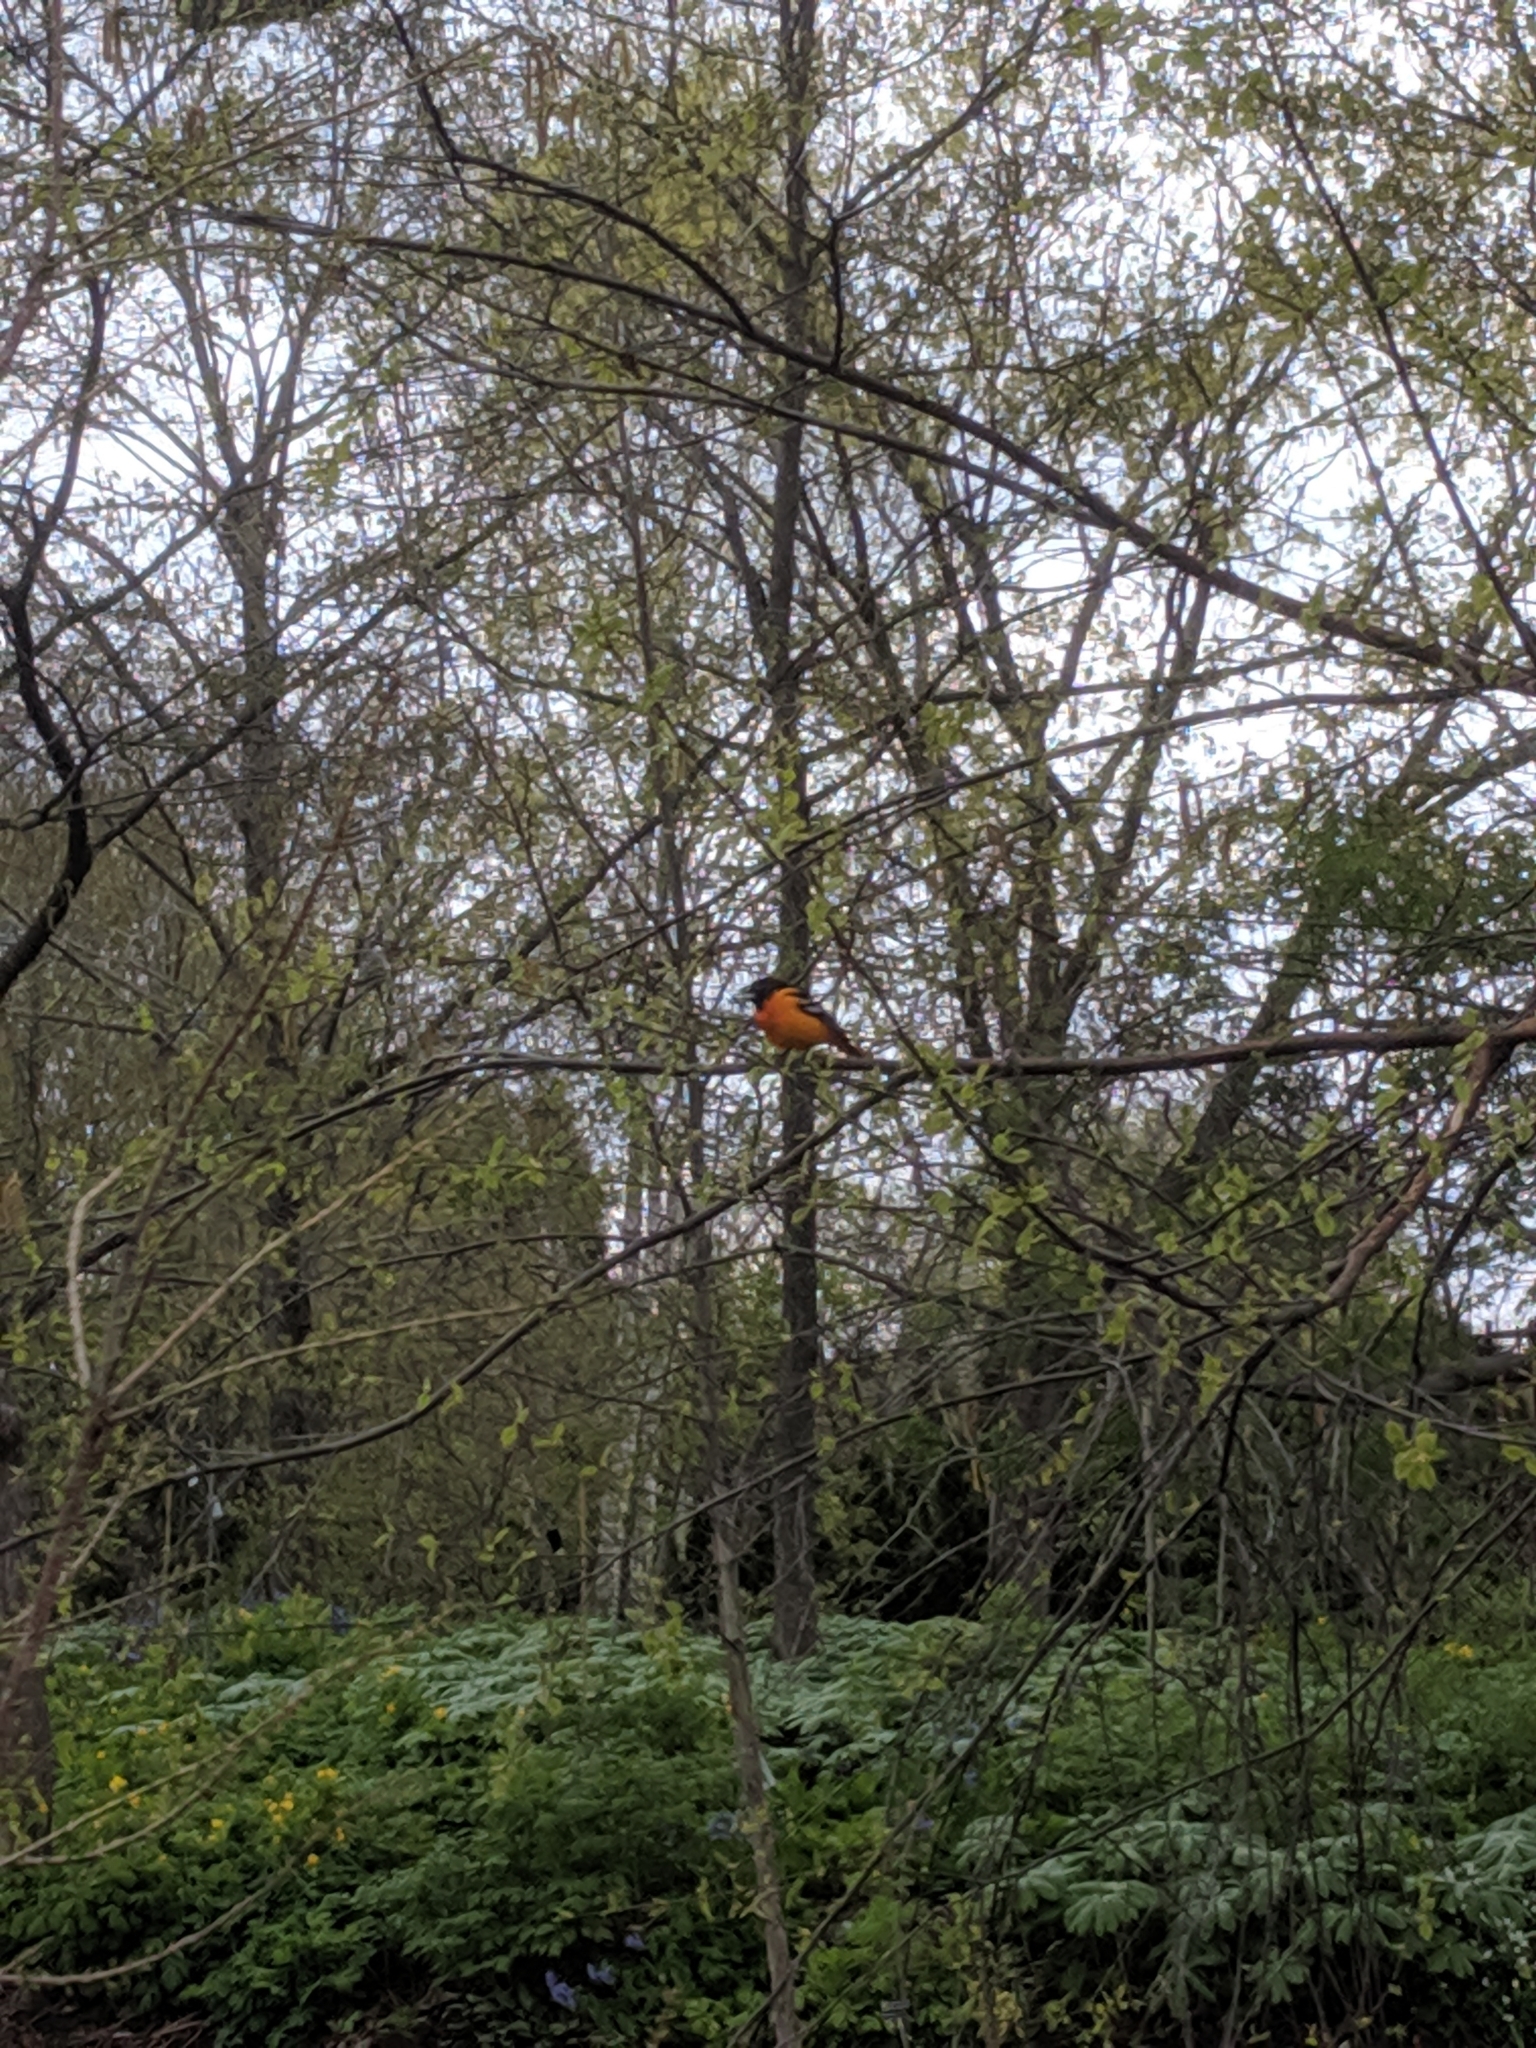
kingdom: Animalia
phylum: Chordata
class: Aves
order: Passeriformes
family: Icteridae
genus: Icterus
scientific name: Icterus galbula
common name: Baltimore oriole
